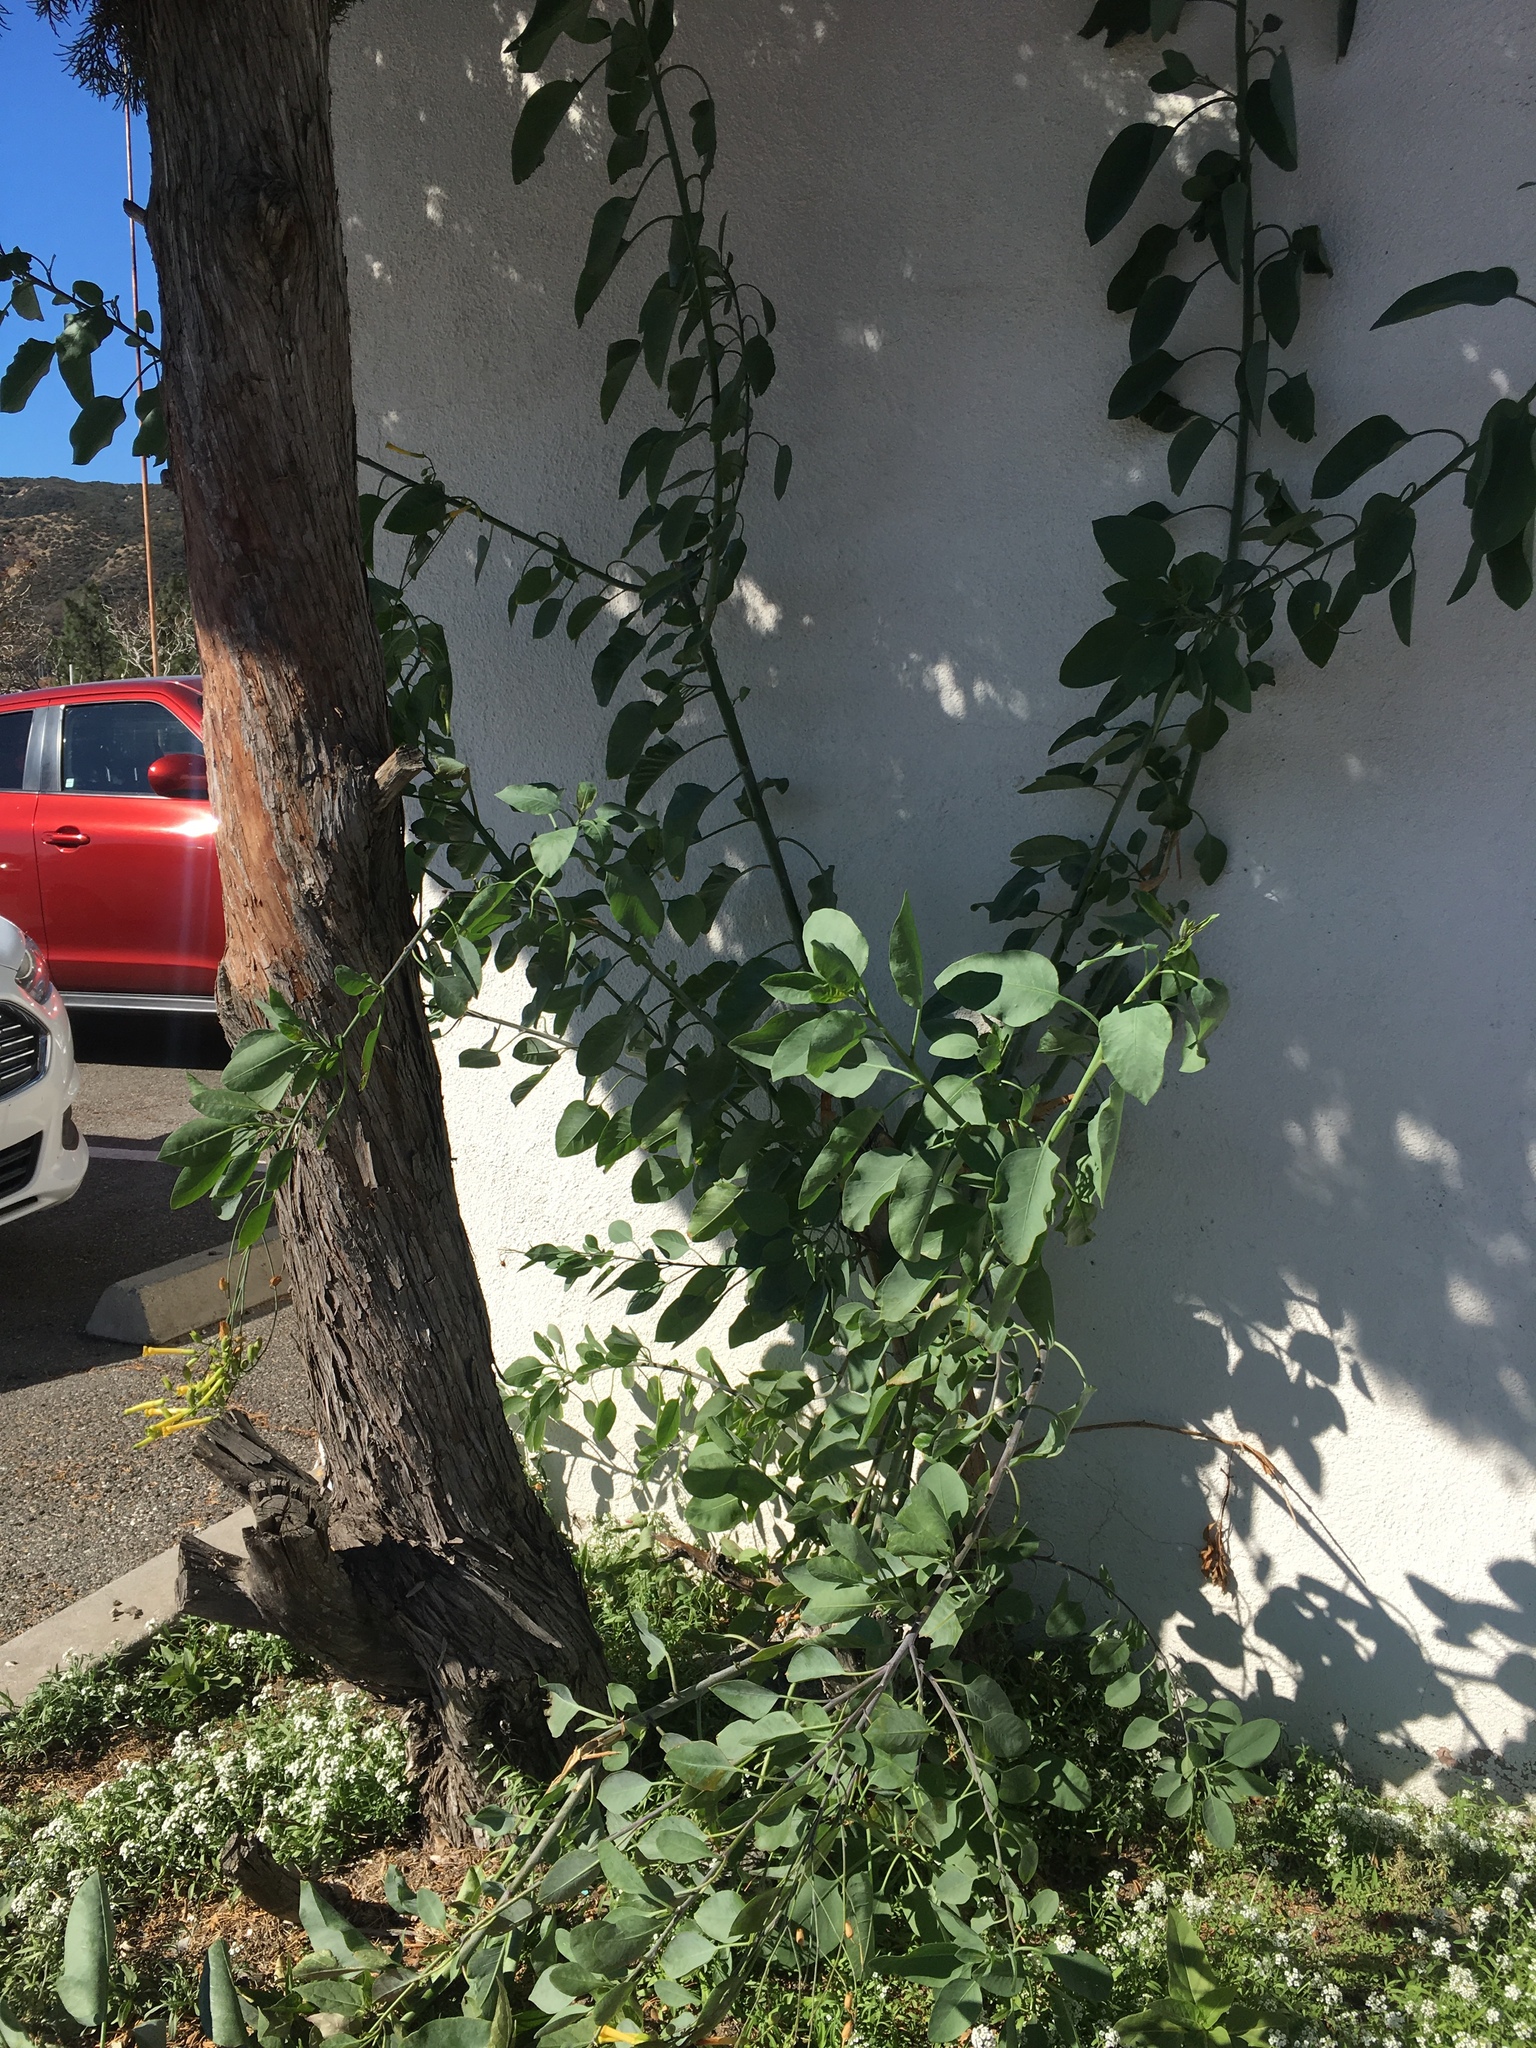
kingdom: Plantae
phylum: Tracheophyta
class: Magnoliopsida
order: Solanales
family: Solanaceae
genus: Nicotiana
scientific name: Nicotiana glauca
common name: Tree tobacco
